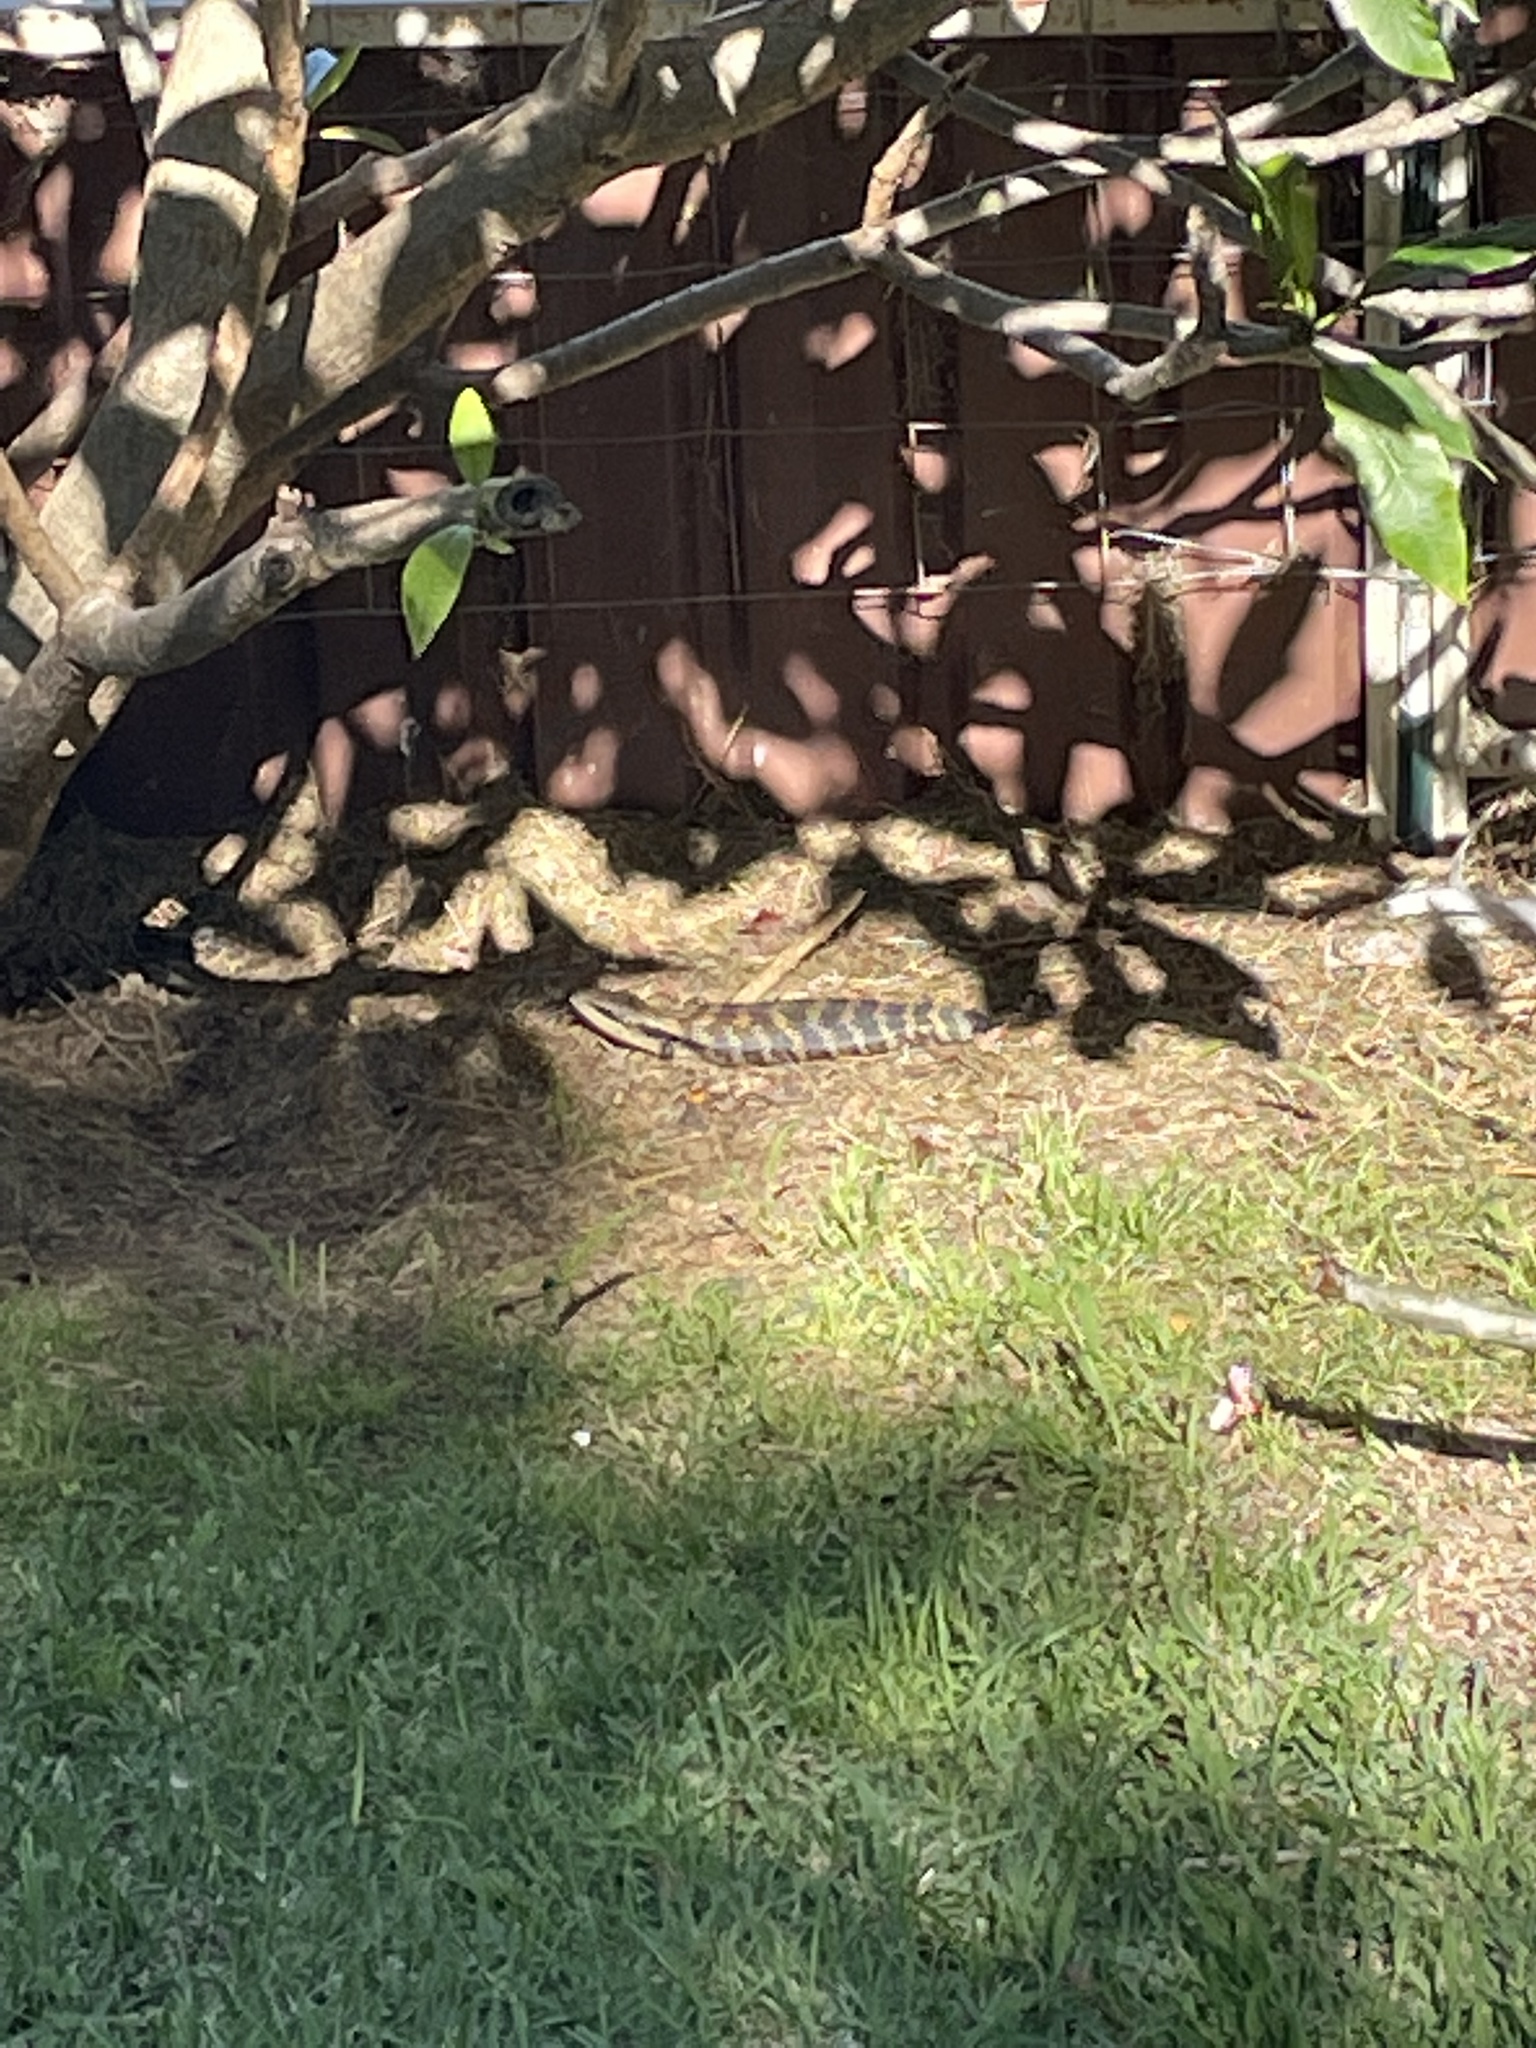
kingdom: Animalia
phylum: Chordata
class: Squamata
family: Scincidae
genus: Tiliqua
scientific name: Tiliqua scincoides
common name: Common bluetongue
